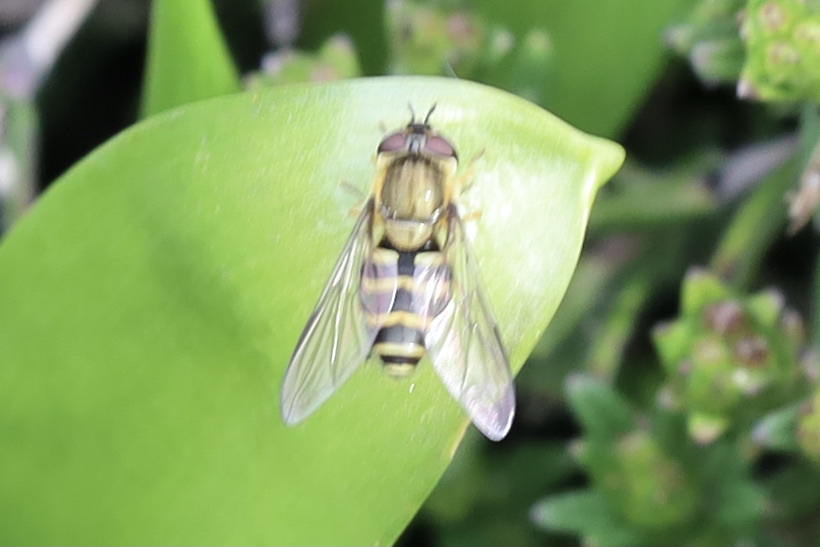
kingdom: Animalia
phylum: Arthropoda
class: Insecta
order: Diptera
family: Syrphidae
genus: Syrphus
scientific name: Syrphus
